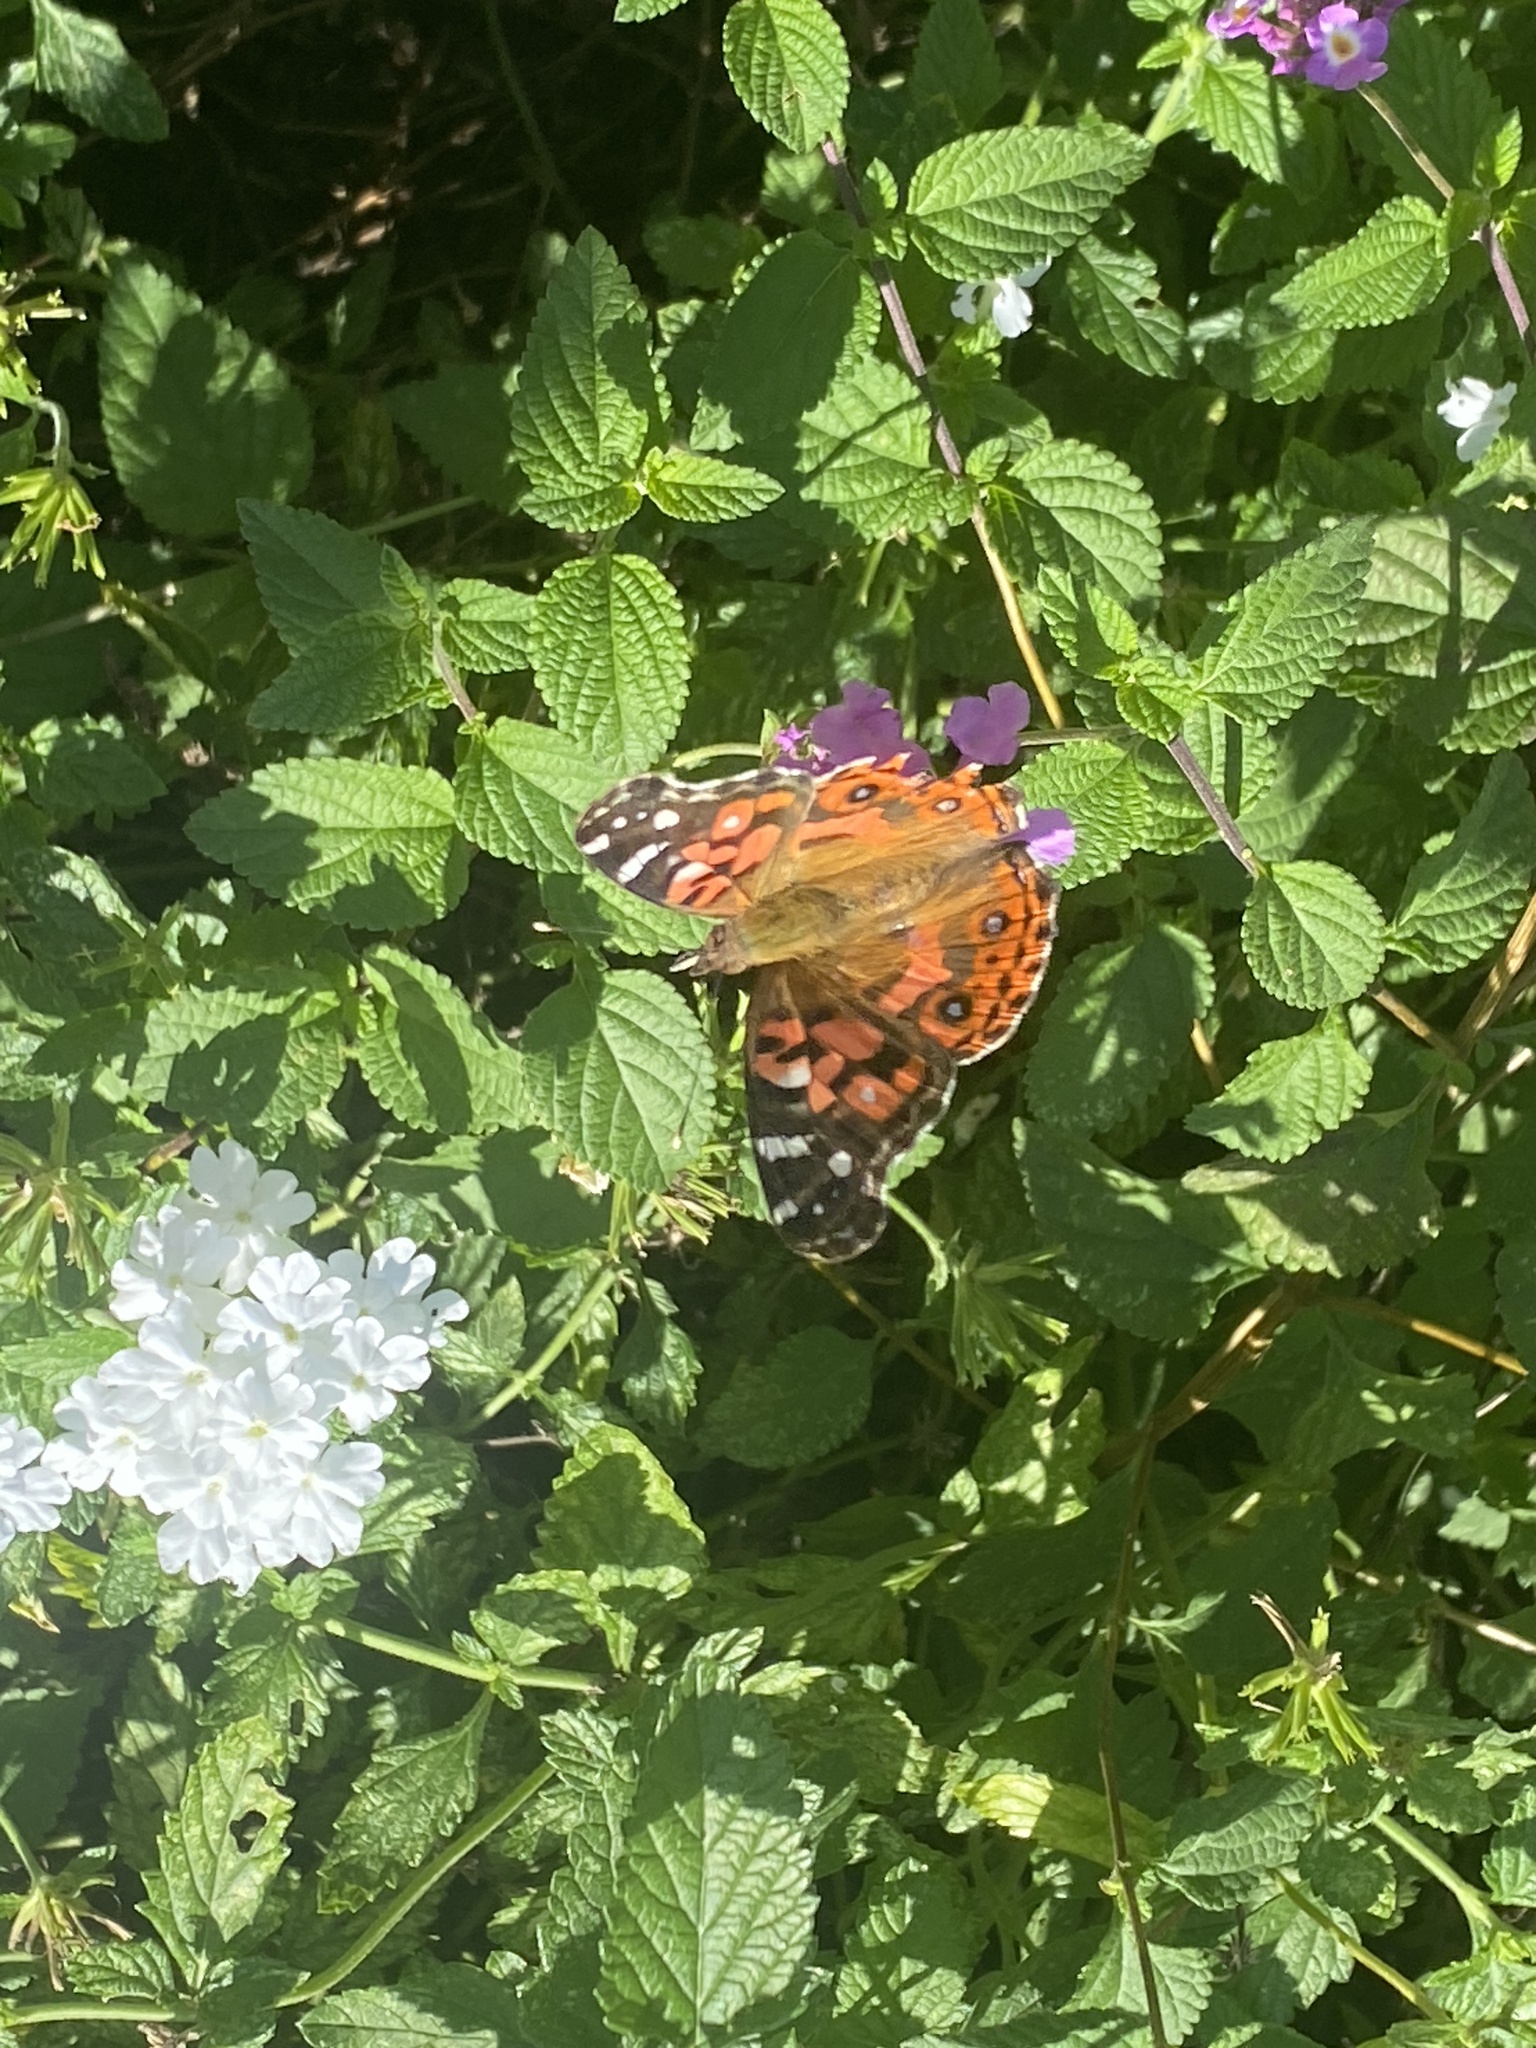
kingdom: Animalia
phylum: Arthropoda
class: Insecta
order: Lepidoptera
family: Nymphalidae
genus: Vanessa
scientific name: Vanessa braziliensis
